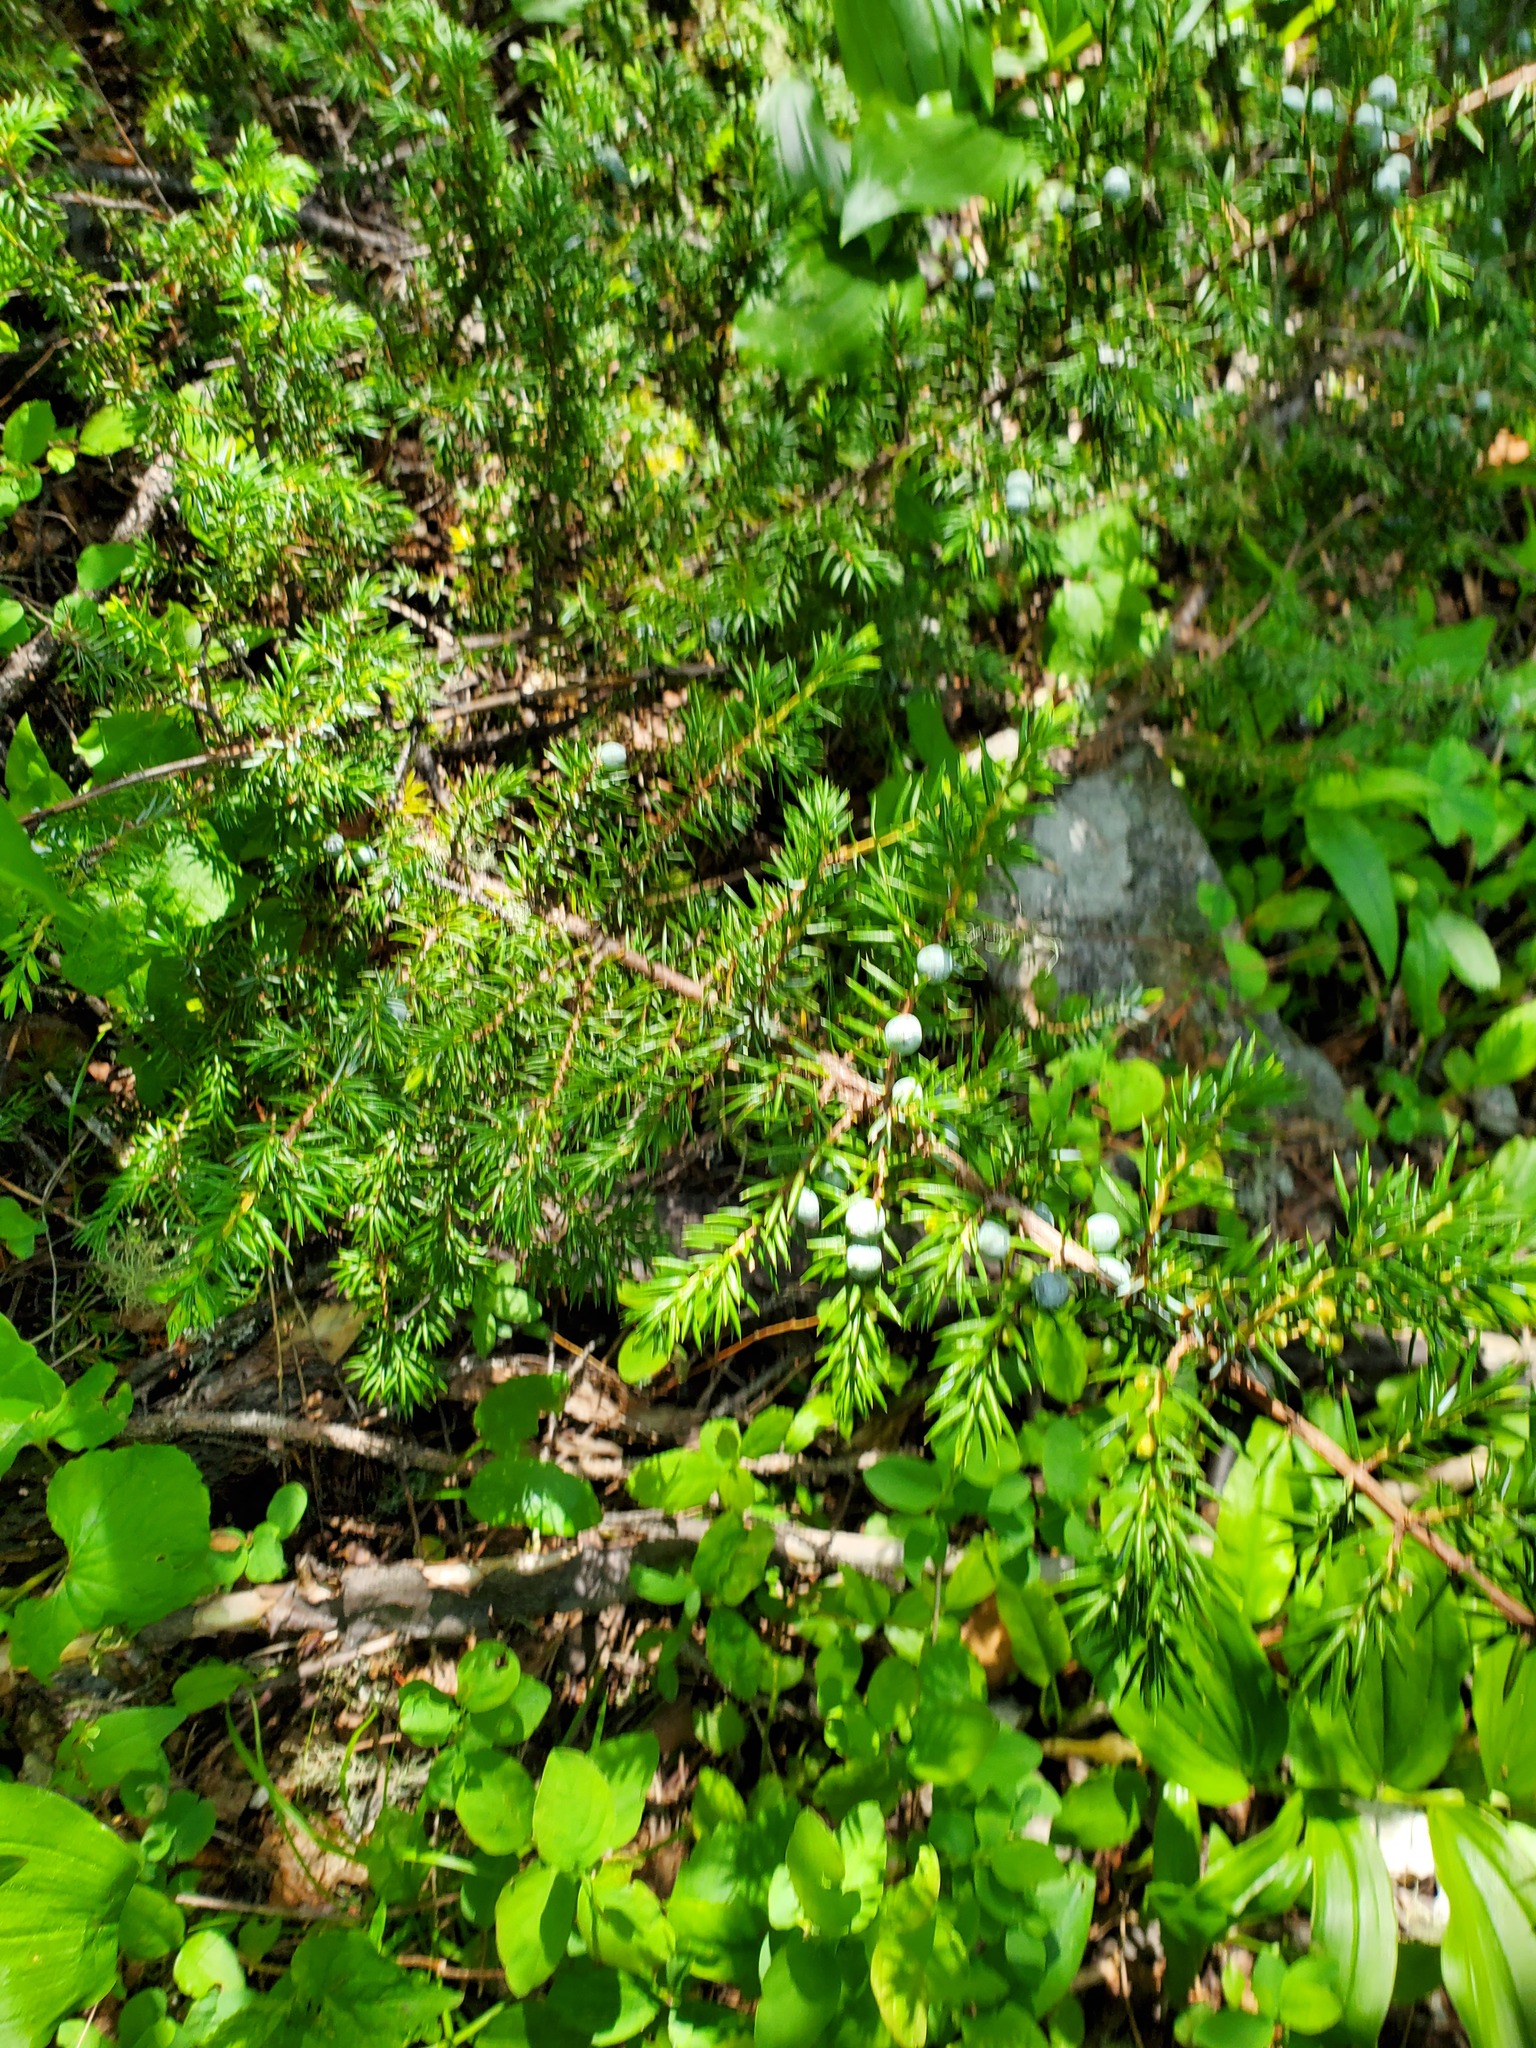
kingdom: Plantae
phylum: Tracheophyta
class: Pinopsida
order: Pinales
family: Cupressaceae
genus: Juniperus
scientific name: Juniperus communis
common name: Common juniper
